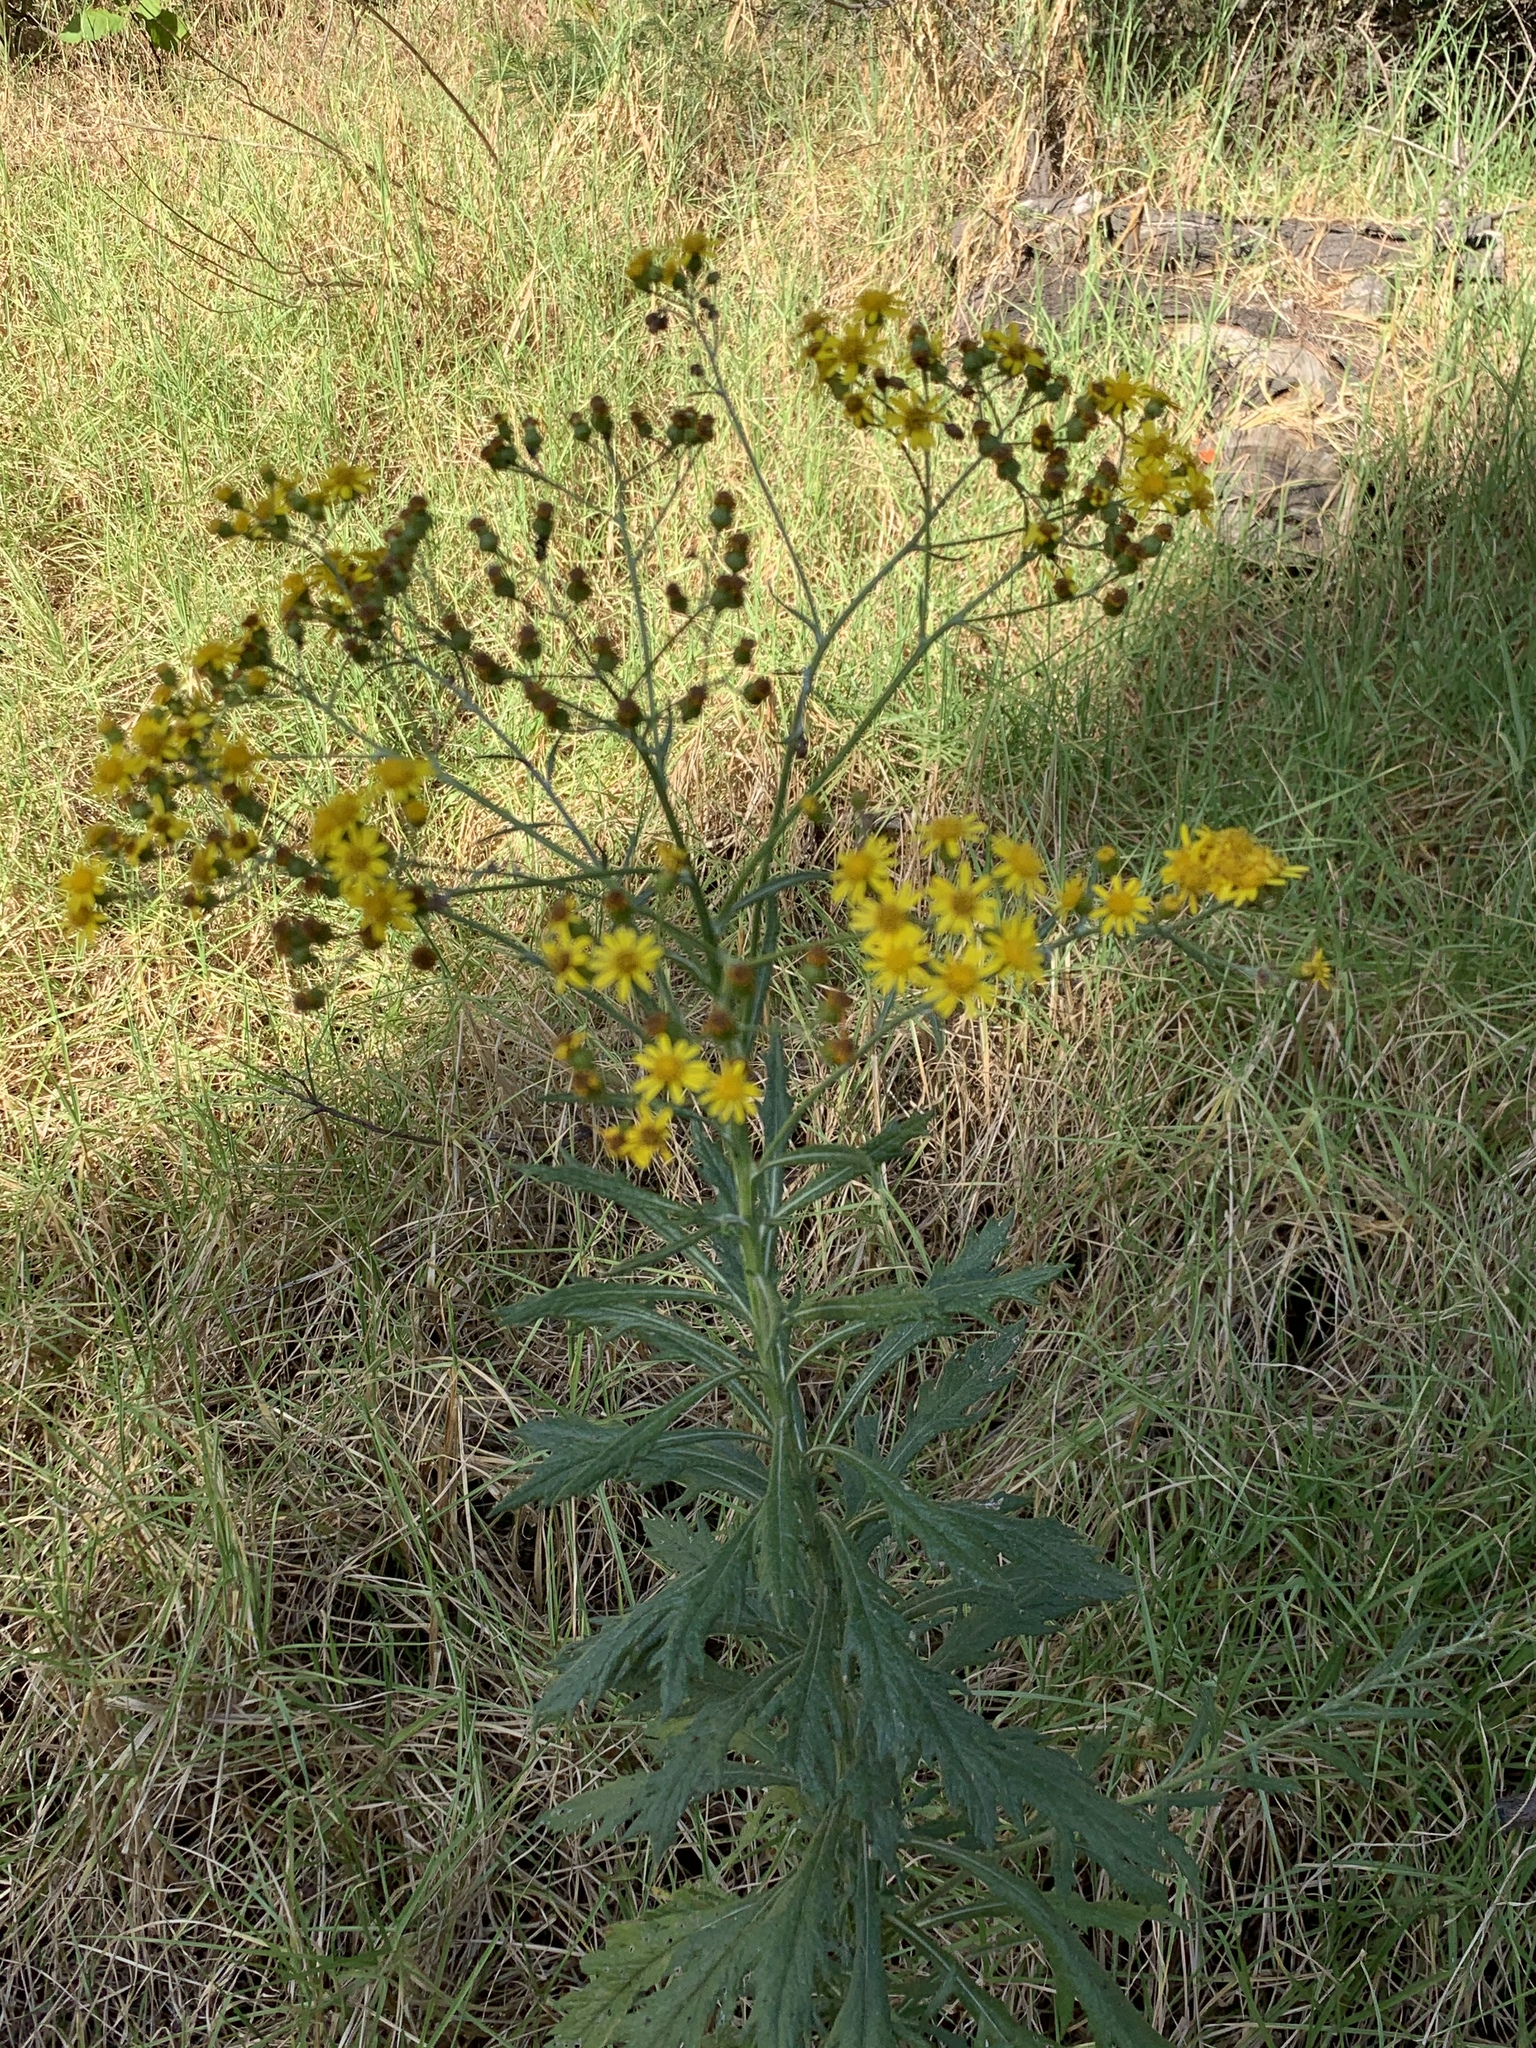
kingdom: Plantae
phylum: Tracheophyta
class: Magnoliopsida
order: Asterales
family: Asteraceae
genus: Senecio
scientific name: Senecio pterophorus
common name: Shoddy ragwort
